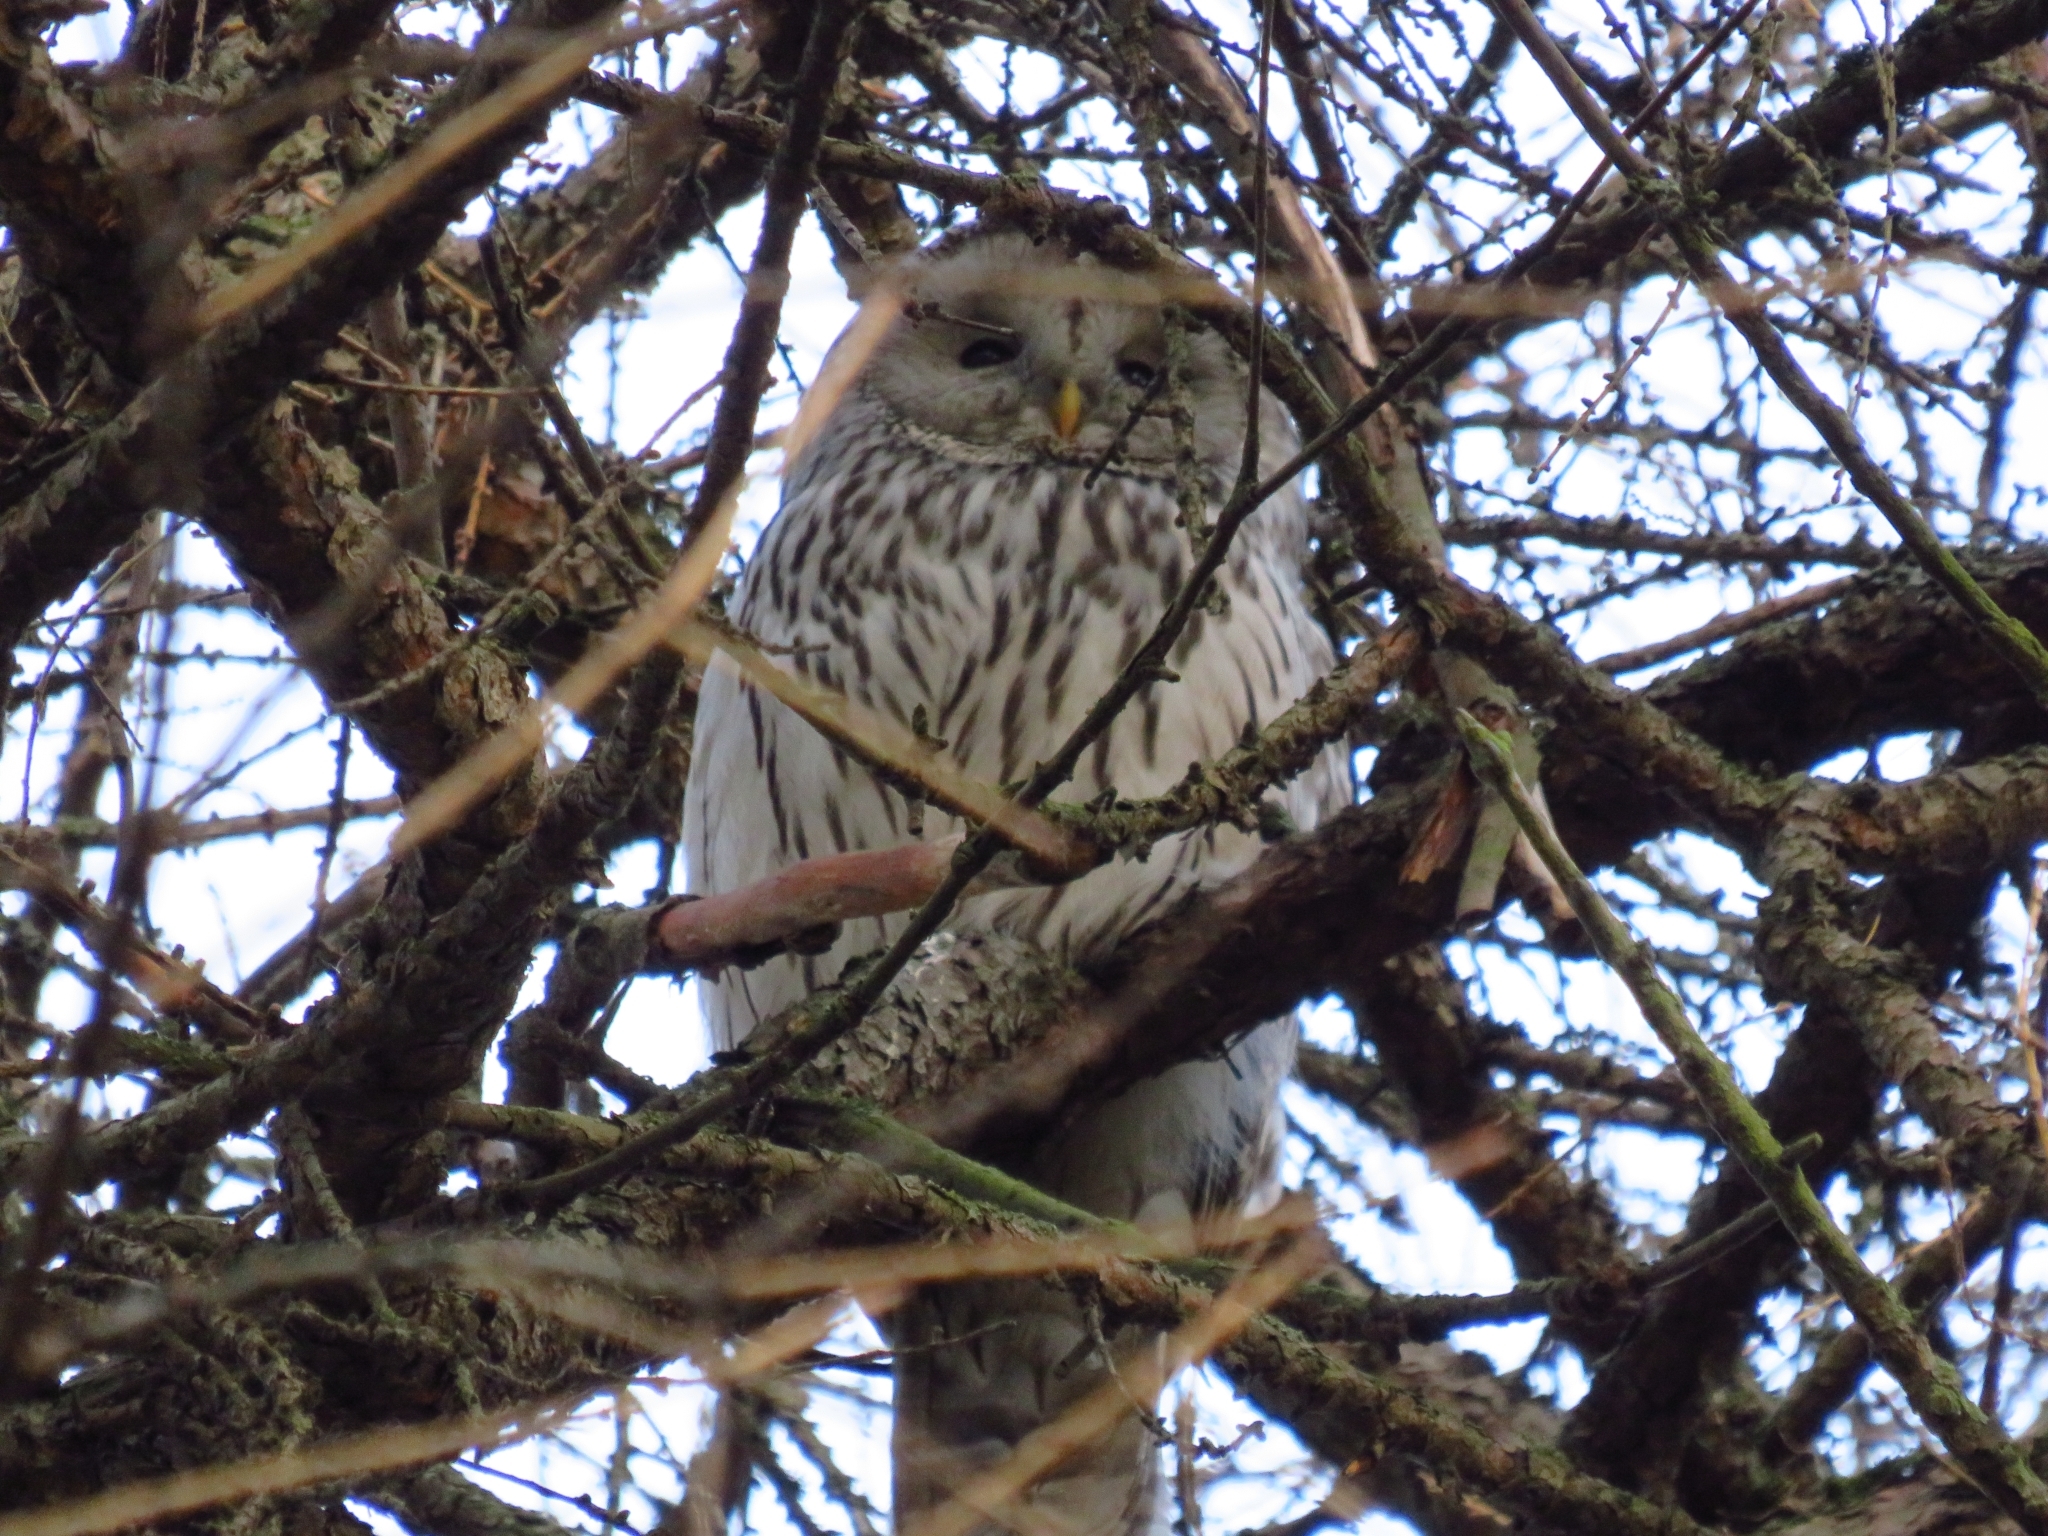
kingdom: Animalia
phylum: Chordata
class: Aves
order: Strigiformes
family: Strigidae
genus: Strix
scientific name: Strix uralensis
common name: Ural owl
